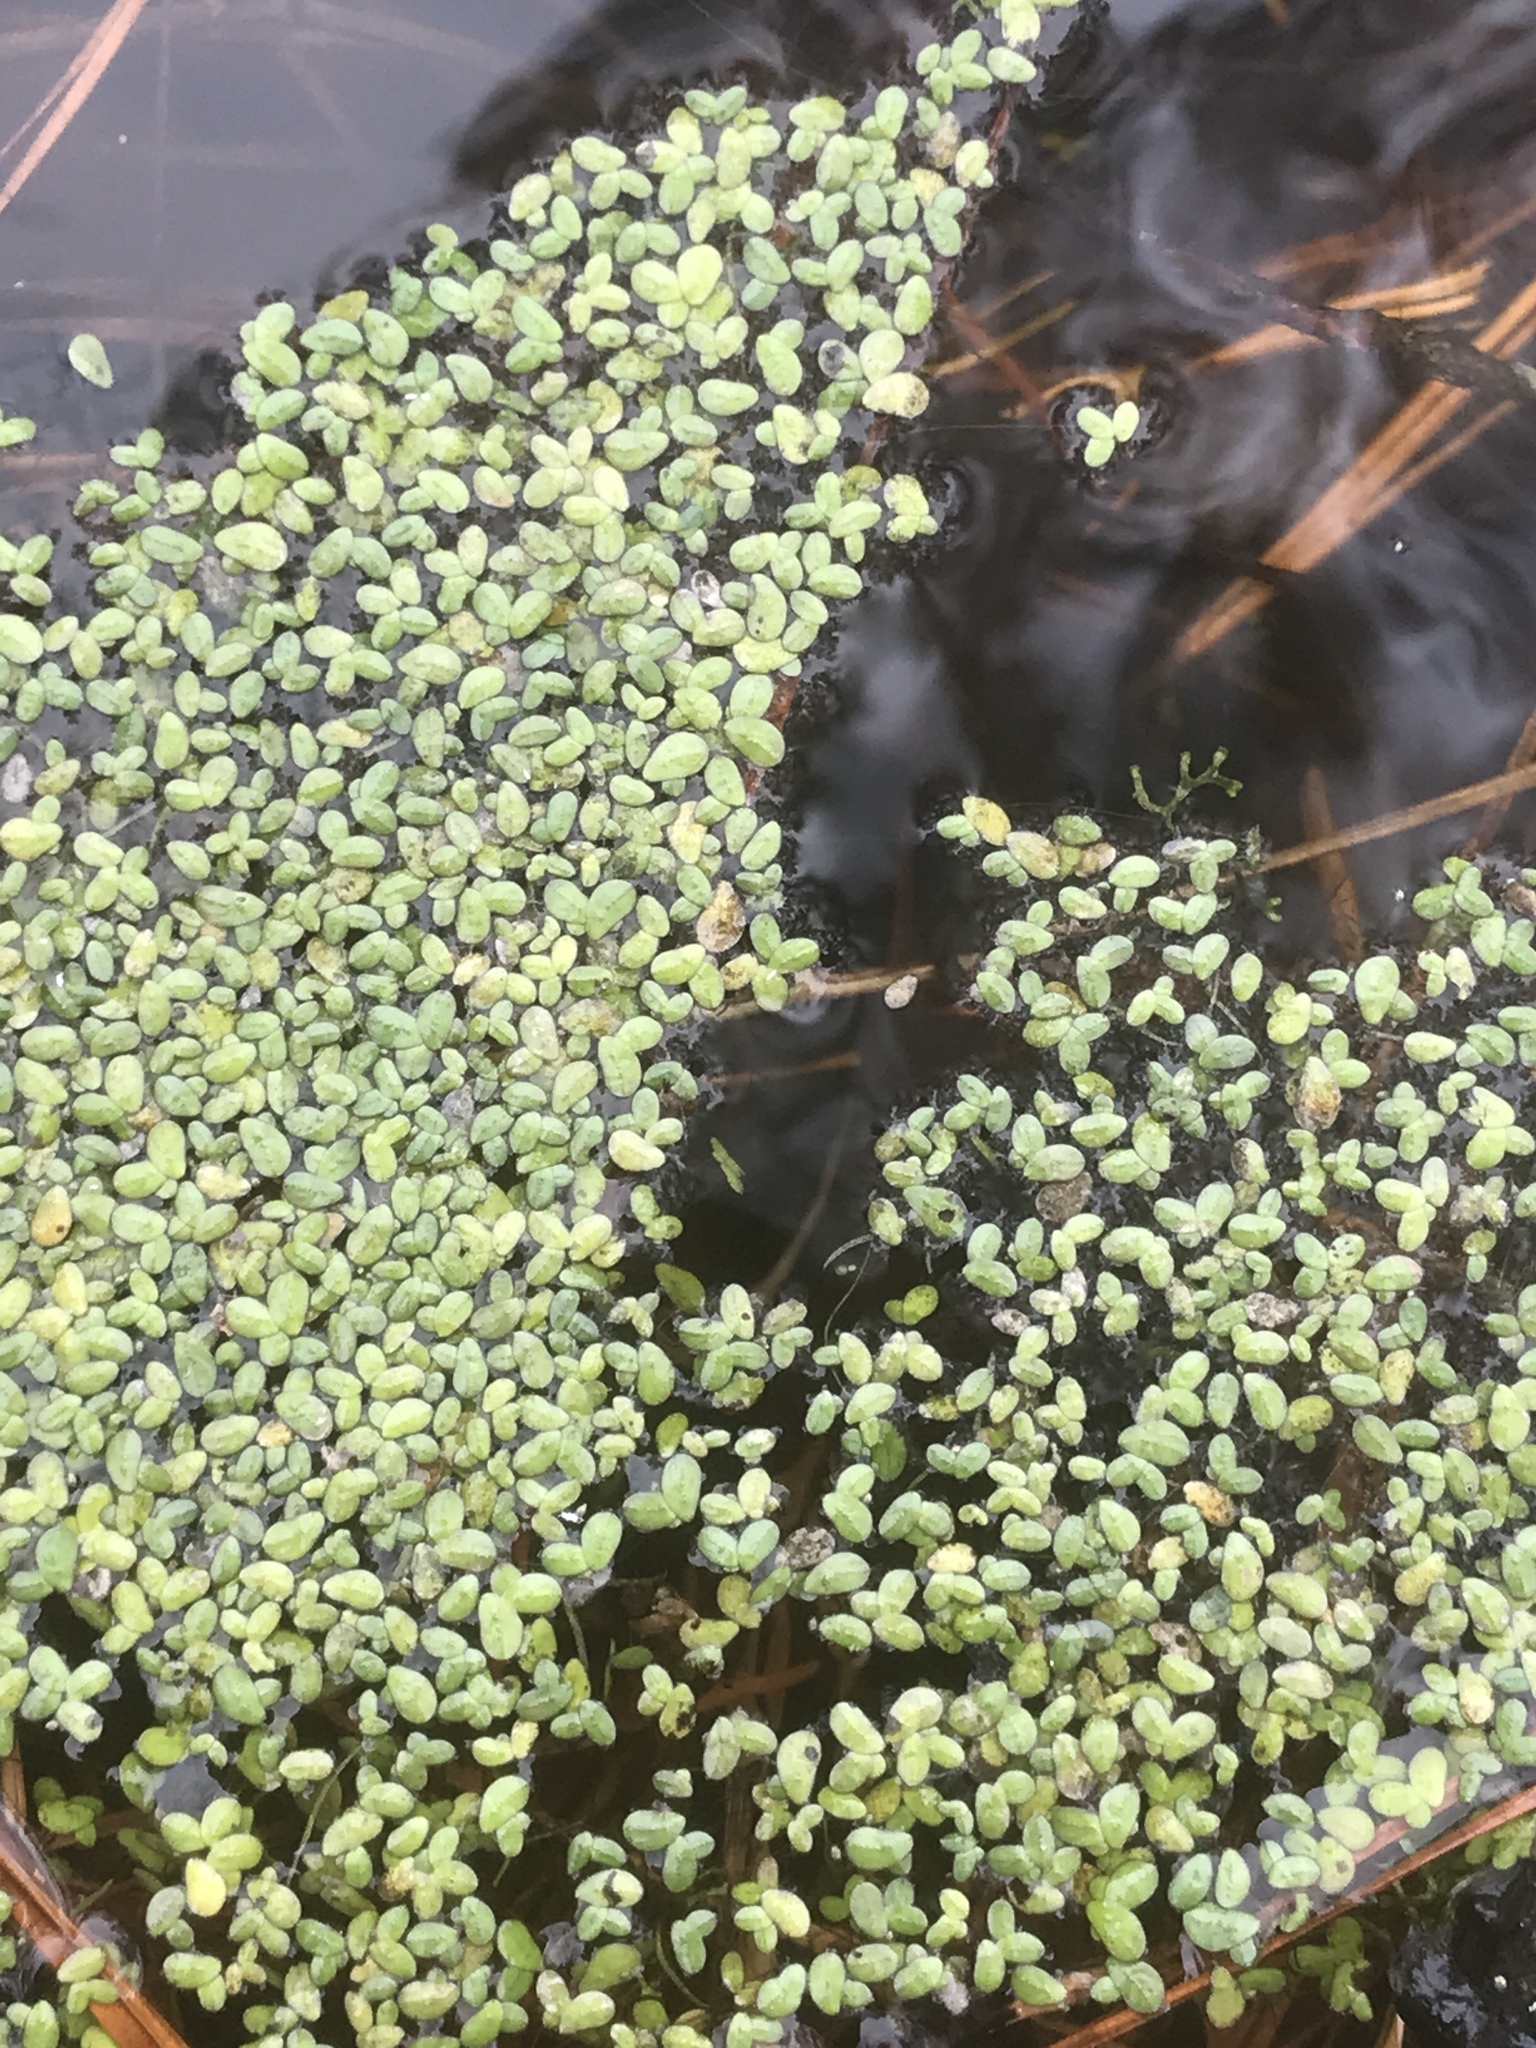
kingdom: Plantae
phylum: Tracheophyta
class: Liliopsida
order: Alismatales
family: Araceae
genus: Lemna
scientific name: Lemna minor
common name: Common duckweed
